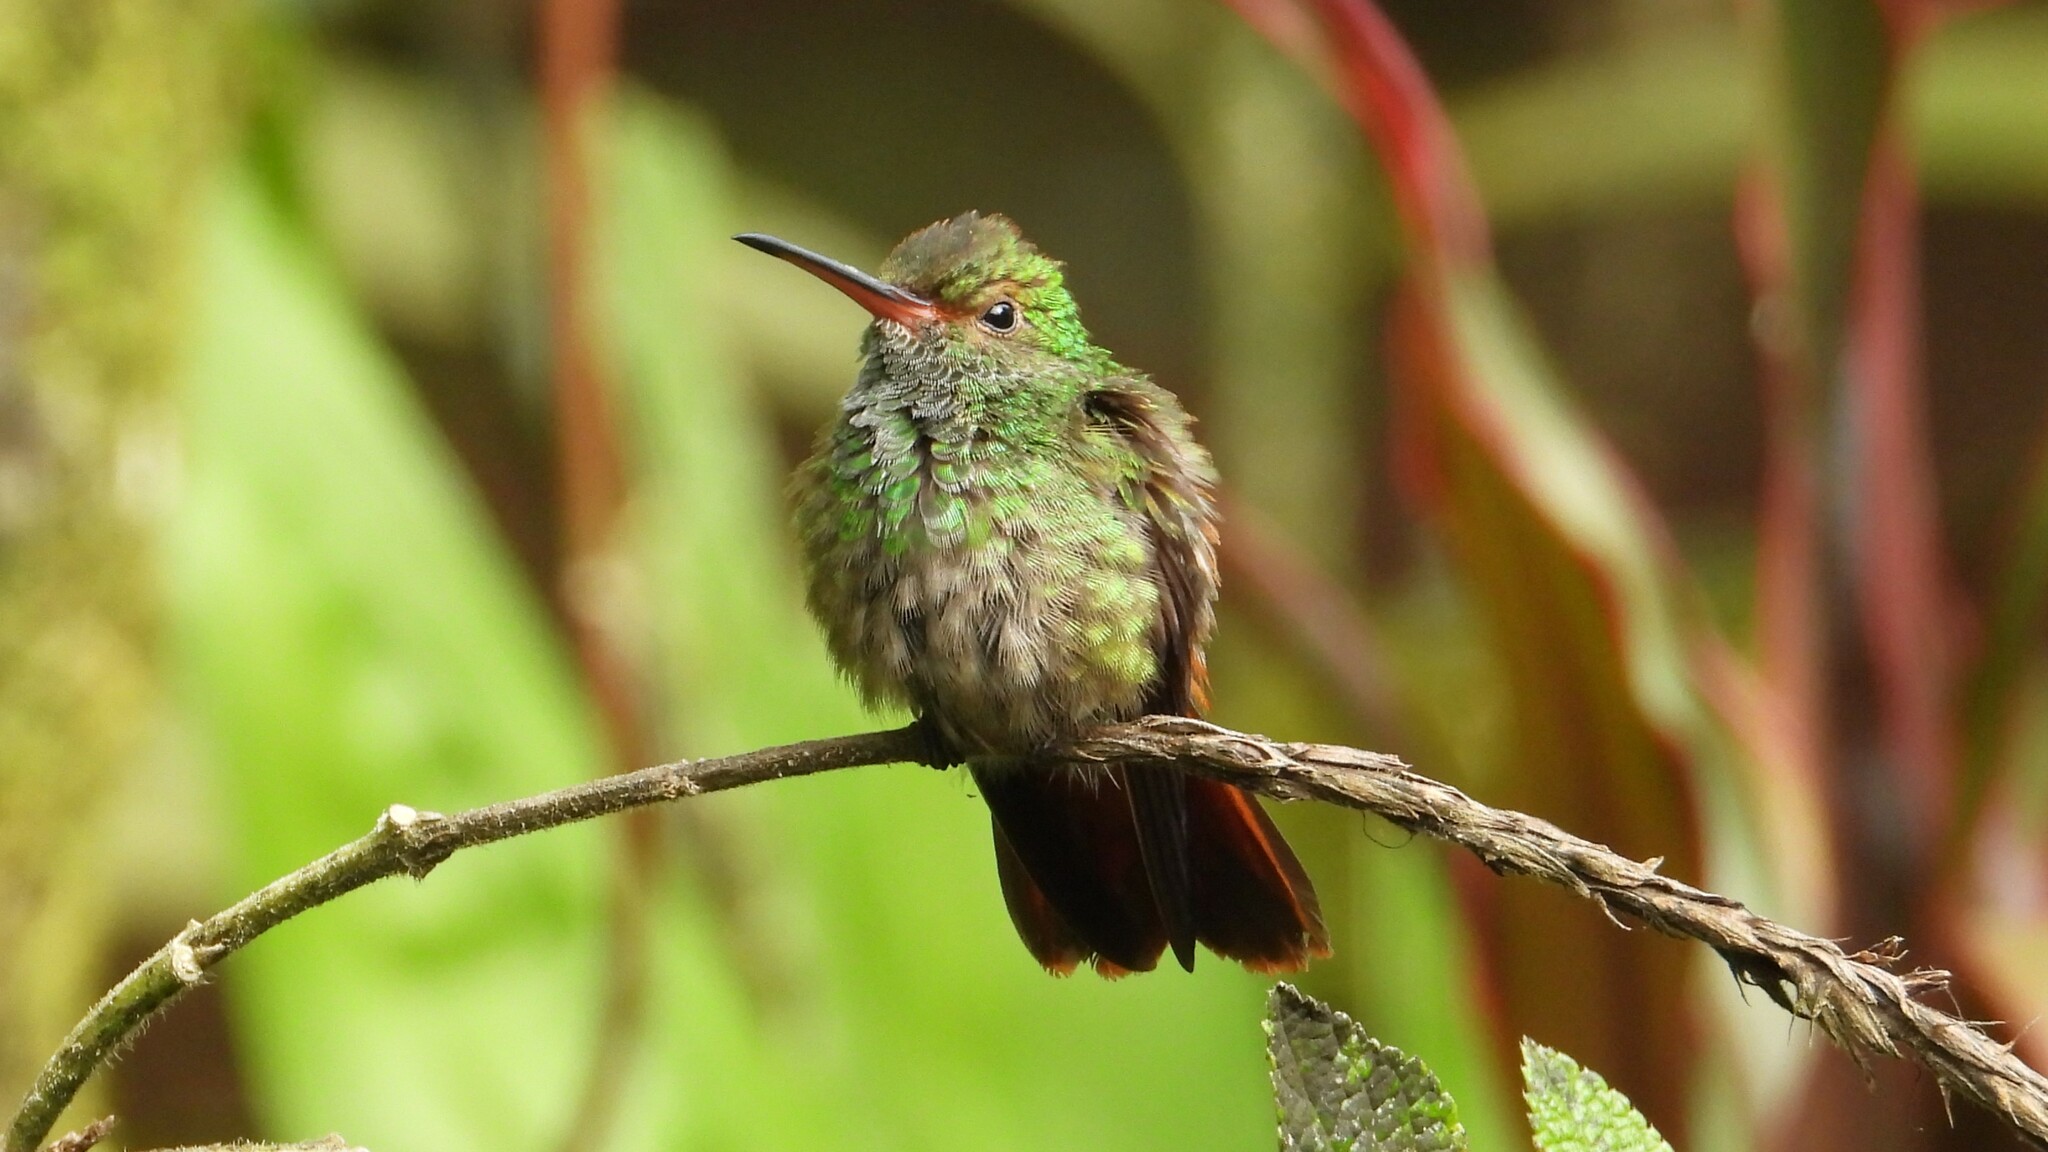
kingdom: Animalia
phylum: Chordata
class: Aves
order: Apodiformes
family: Trochilidae
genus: Amazilia
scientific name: Amazilia tzacatl
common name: Rufous-tailed hummingbird
